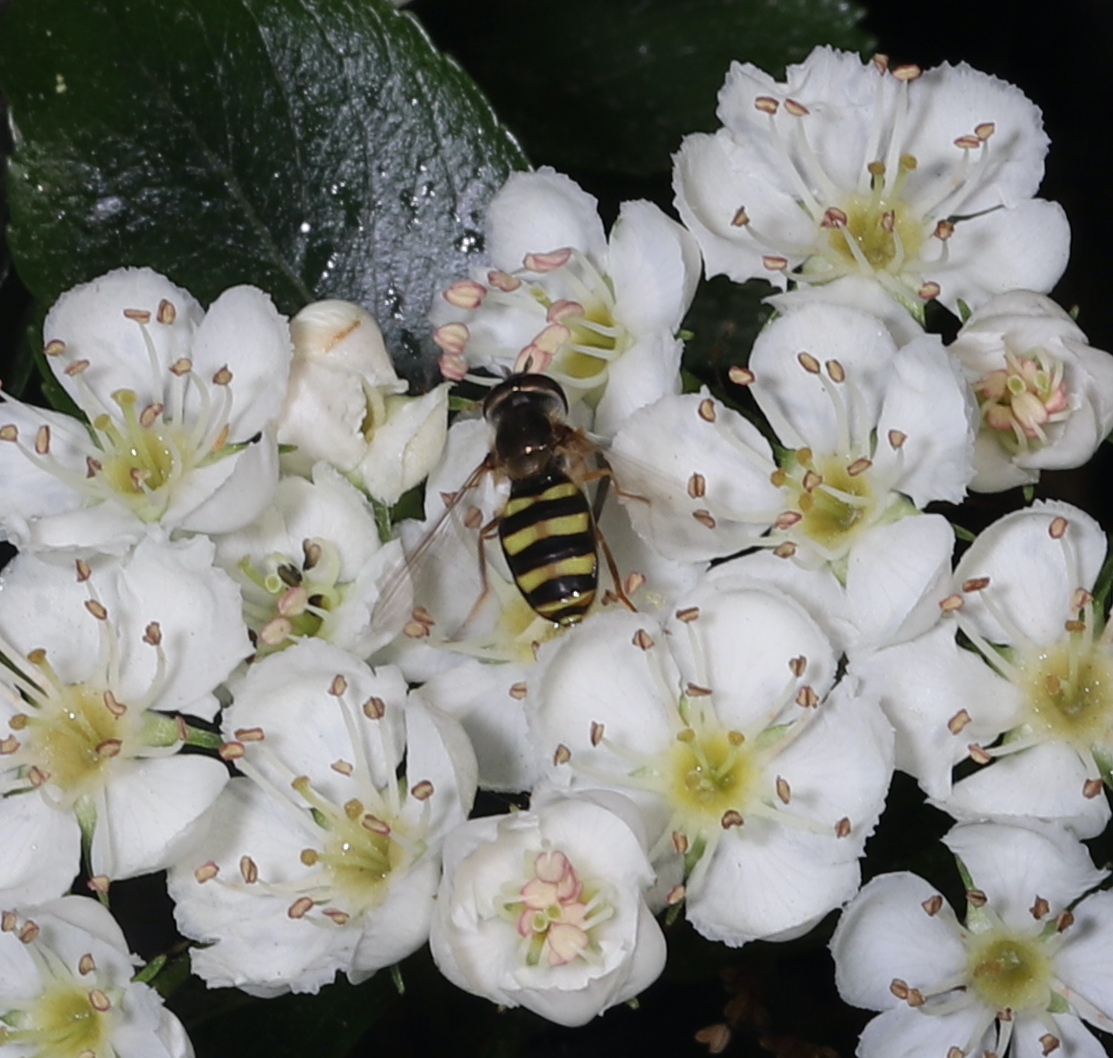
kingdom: Animalia
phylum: Arthropoda
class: Insecta
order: Diptera
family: Syrphidae
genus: Eupeodes
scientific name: Eupeodes
